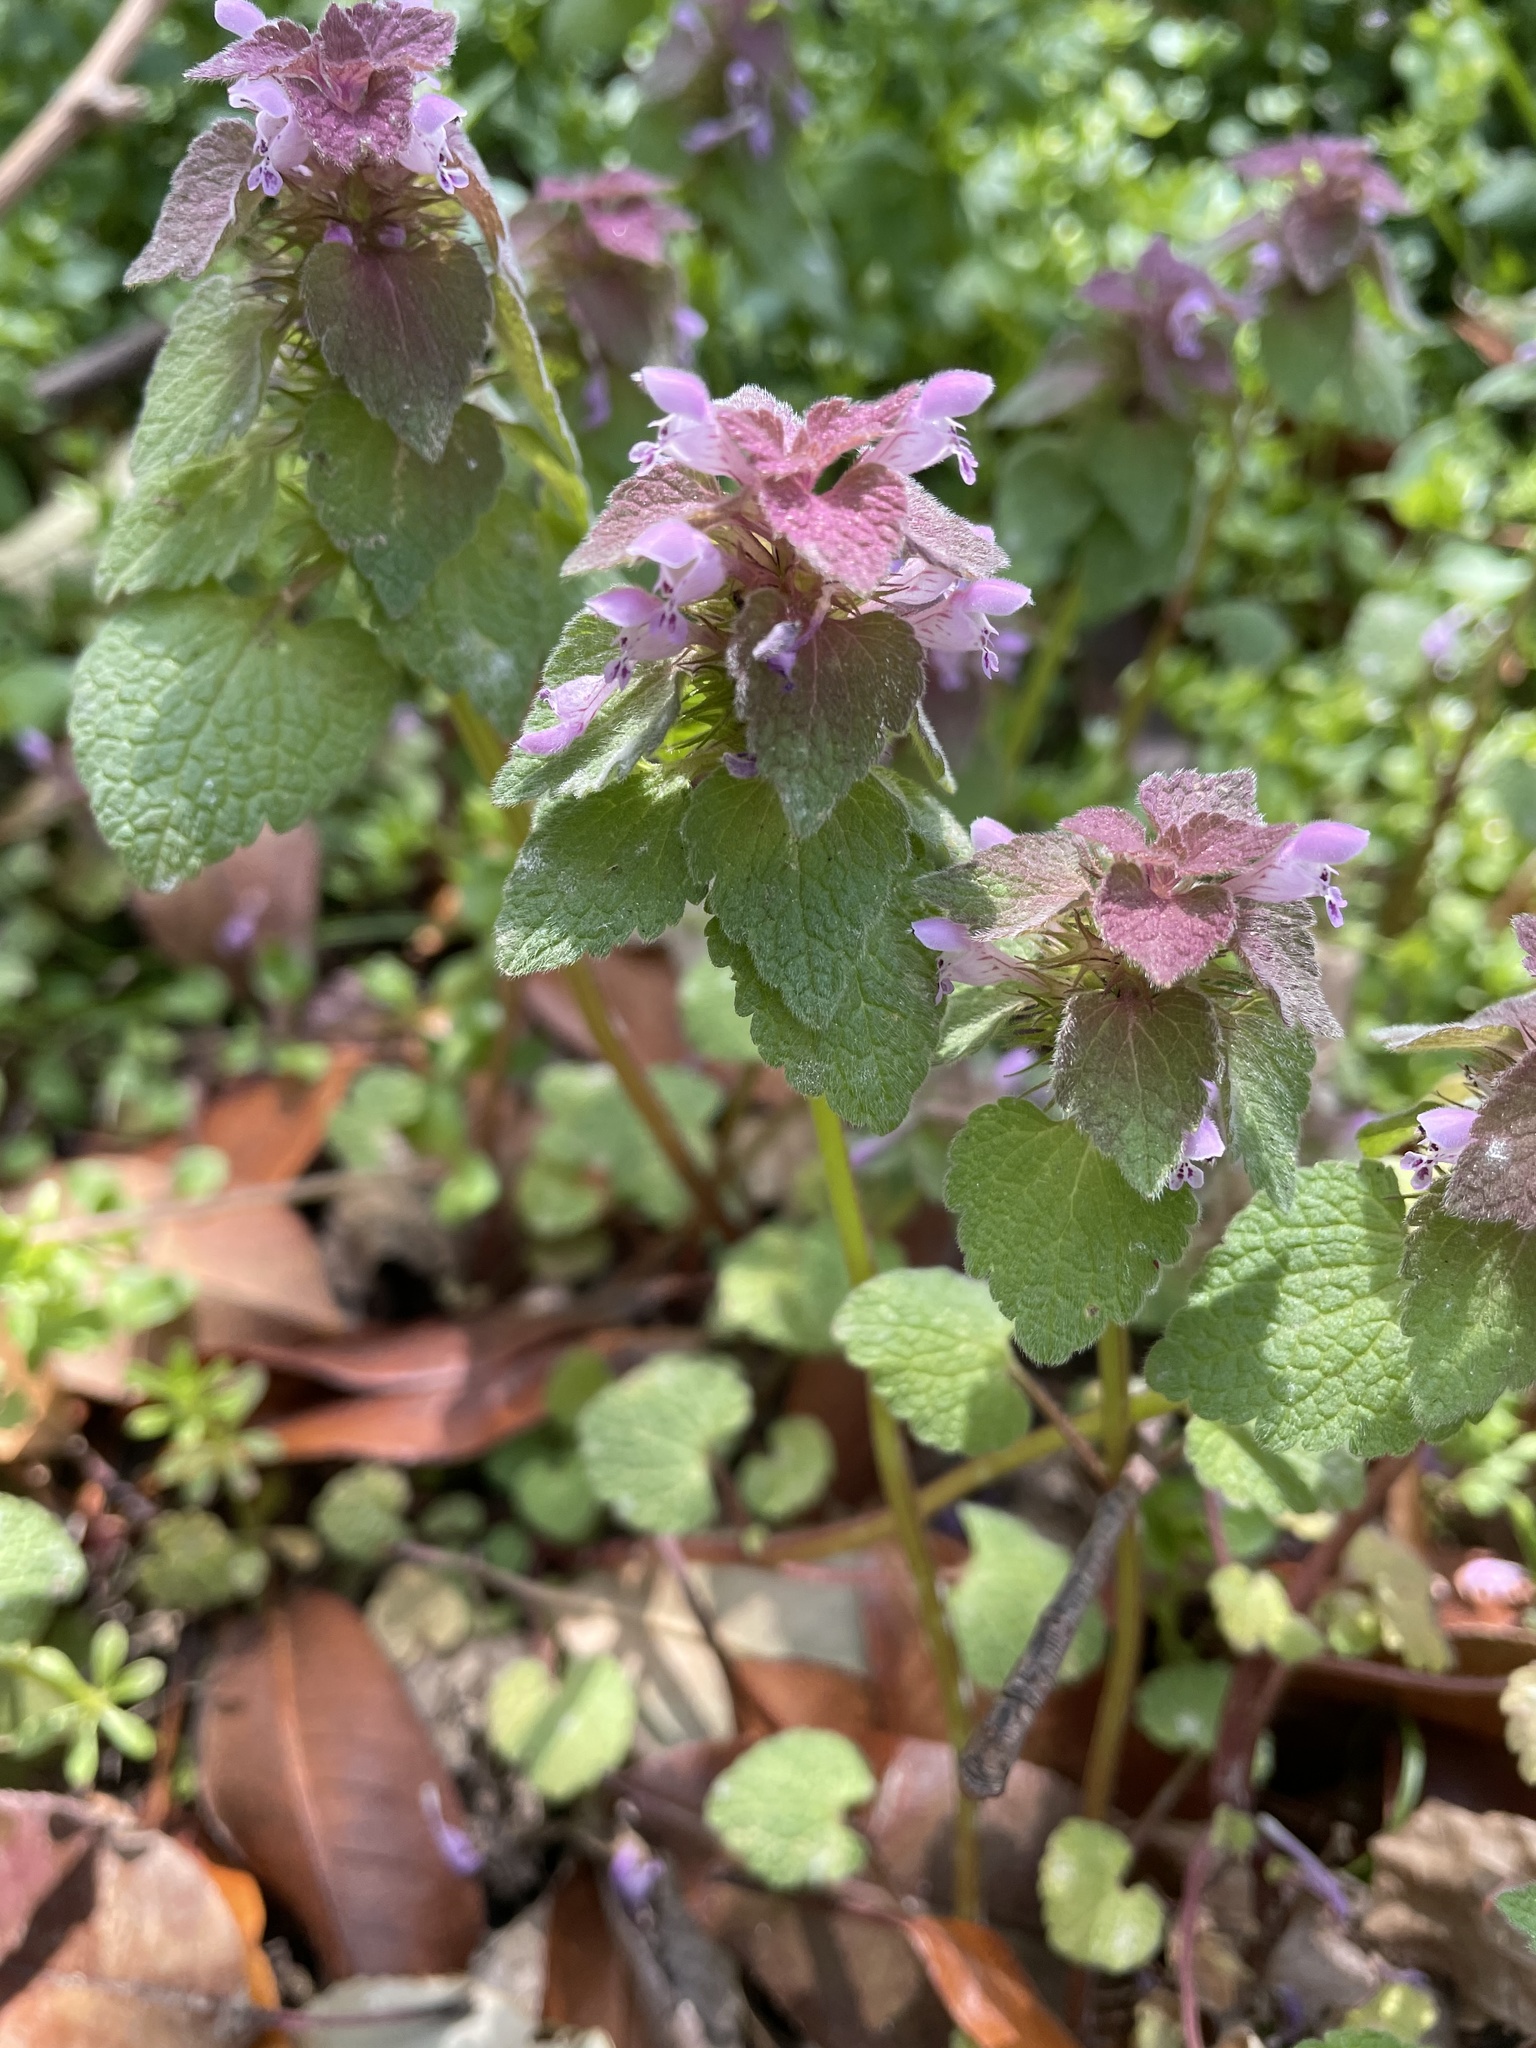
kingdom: Plantae
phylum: Tracheophyta
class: Magnoliopsida
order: Lamiales
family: Lamiaceae
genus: Lamium
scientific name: Lamium purpureum
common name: Red dead-nettle
